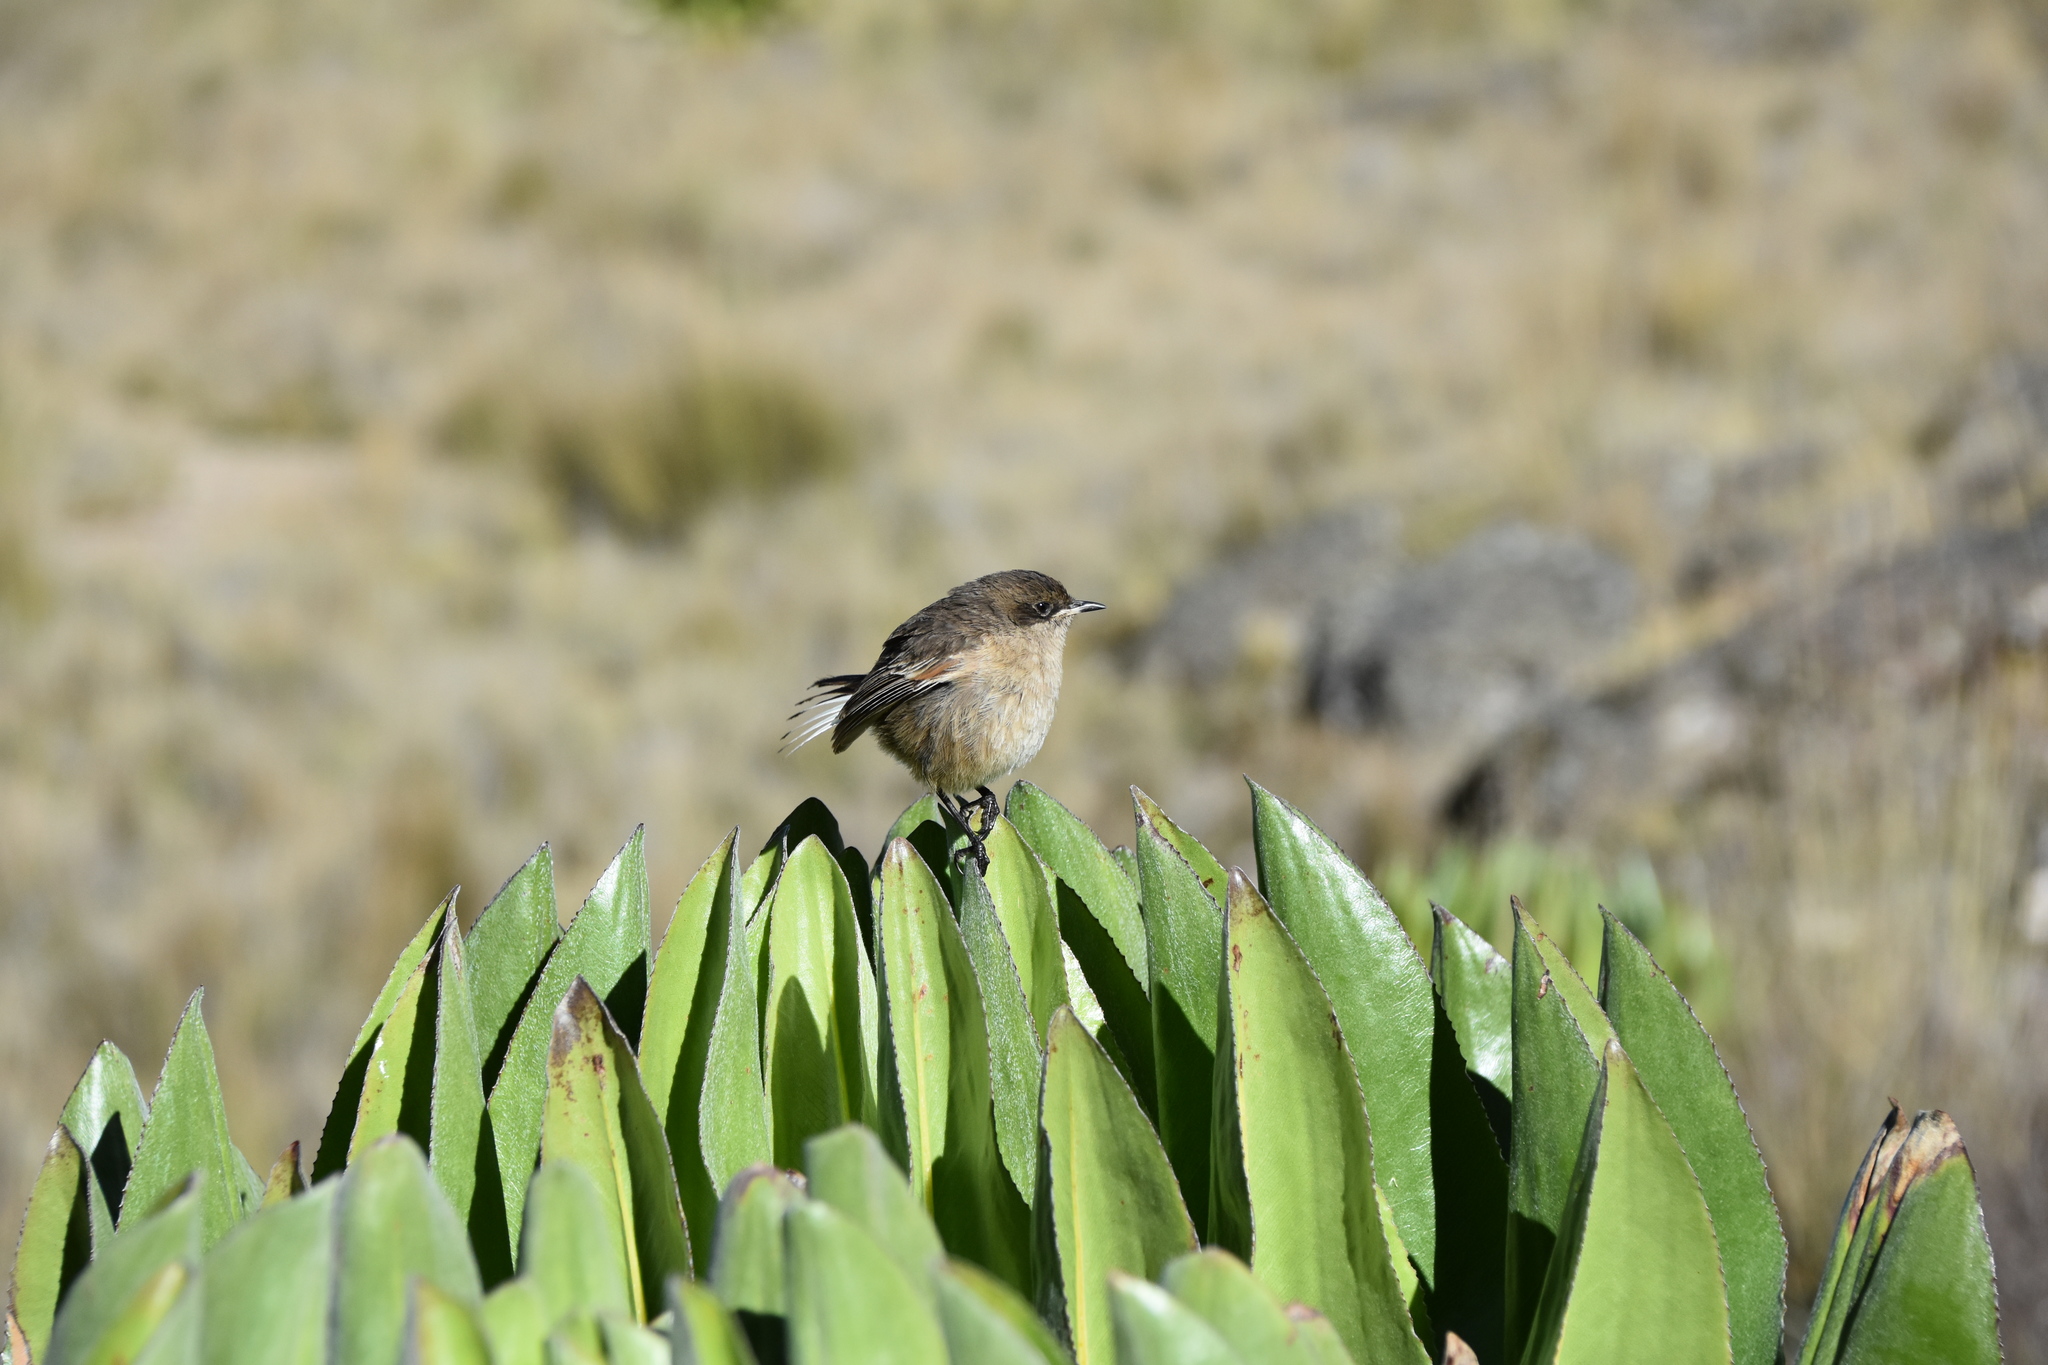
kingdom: Animalia
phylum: Chordata
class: Aves
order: Passeriformes
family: Muscicapidae
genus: Pinarochroa
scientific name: Pinarochroa sordida
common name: Moorland chat
